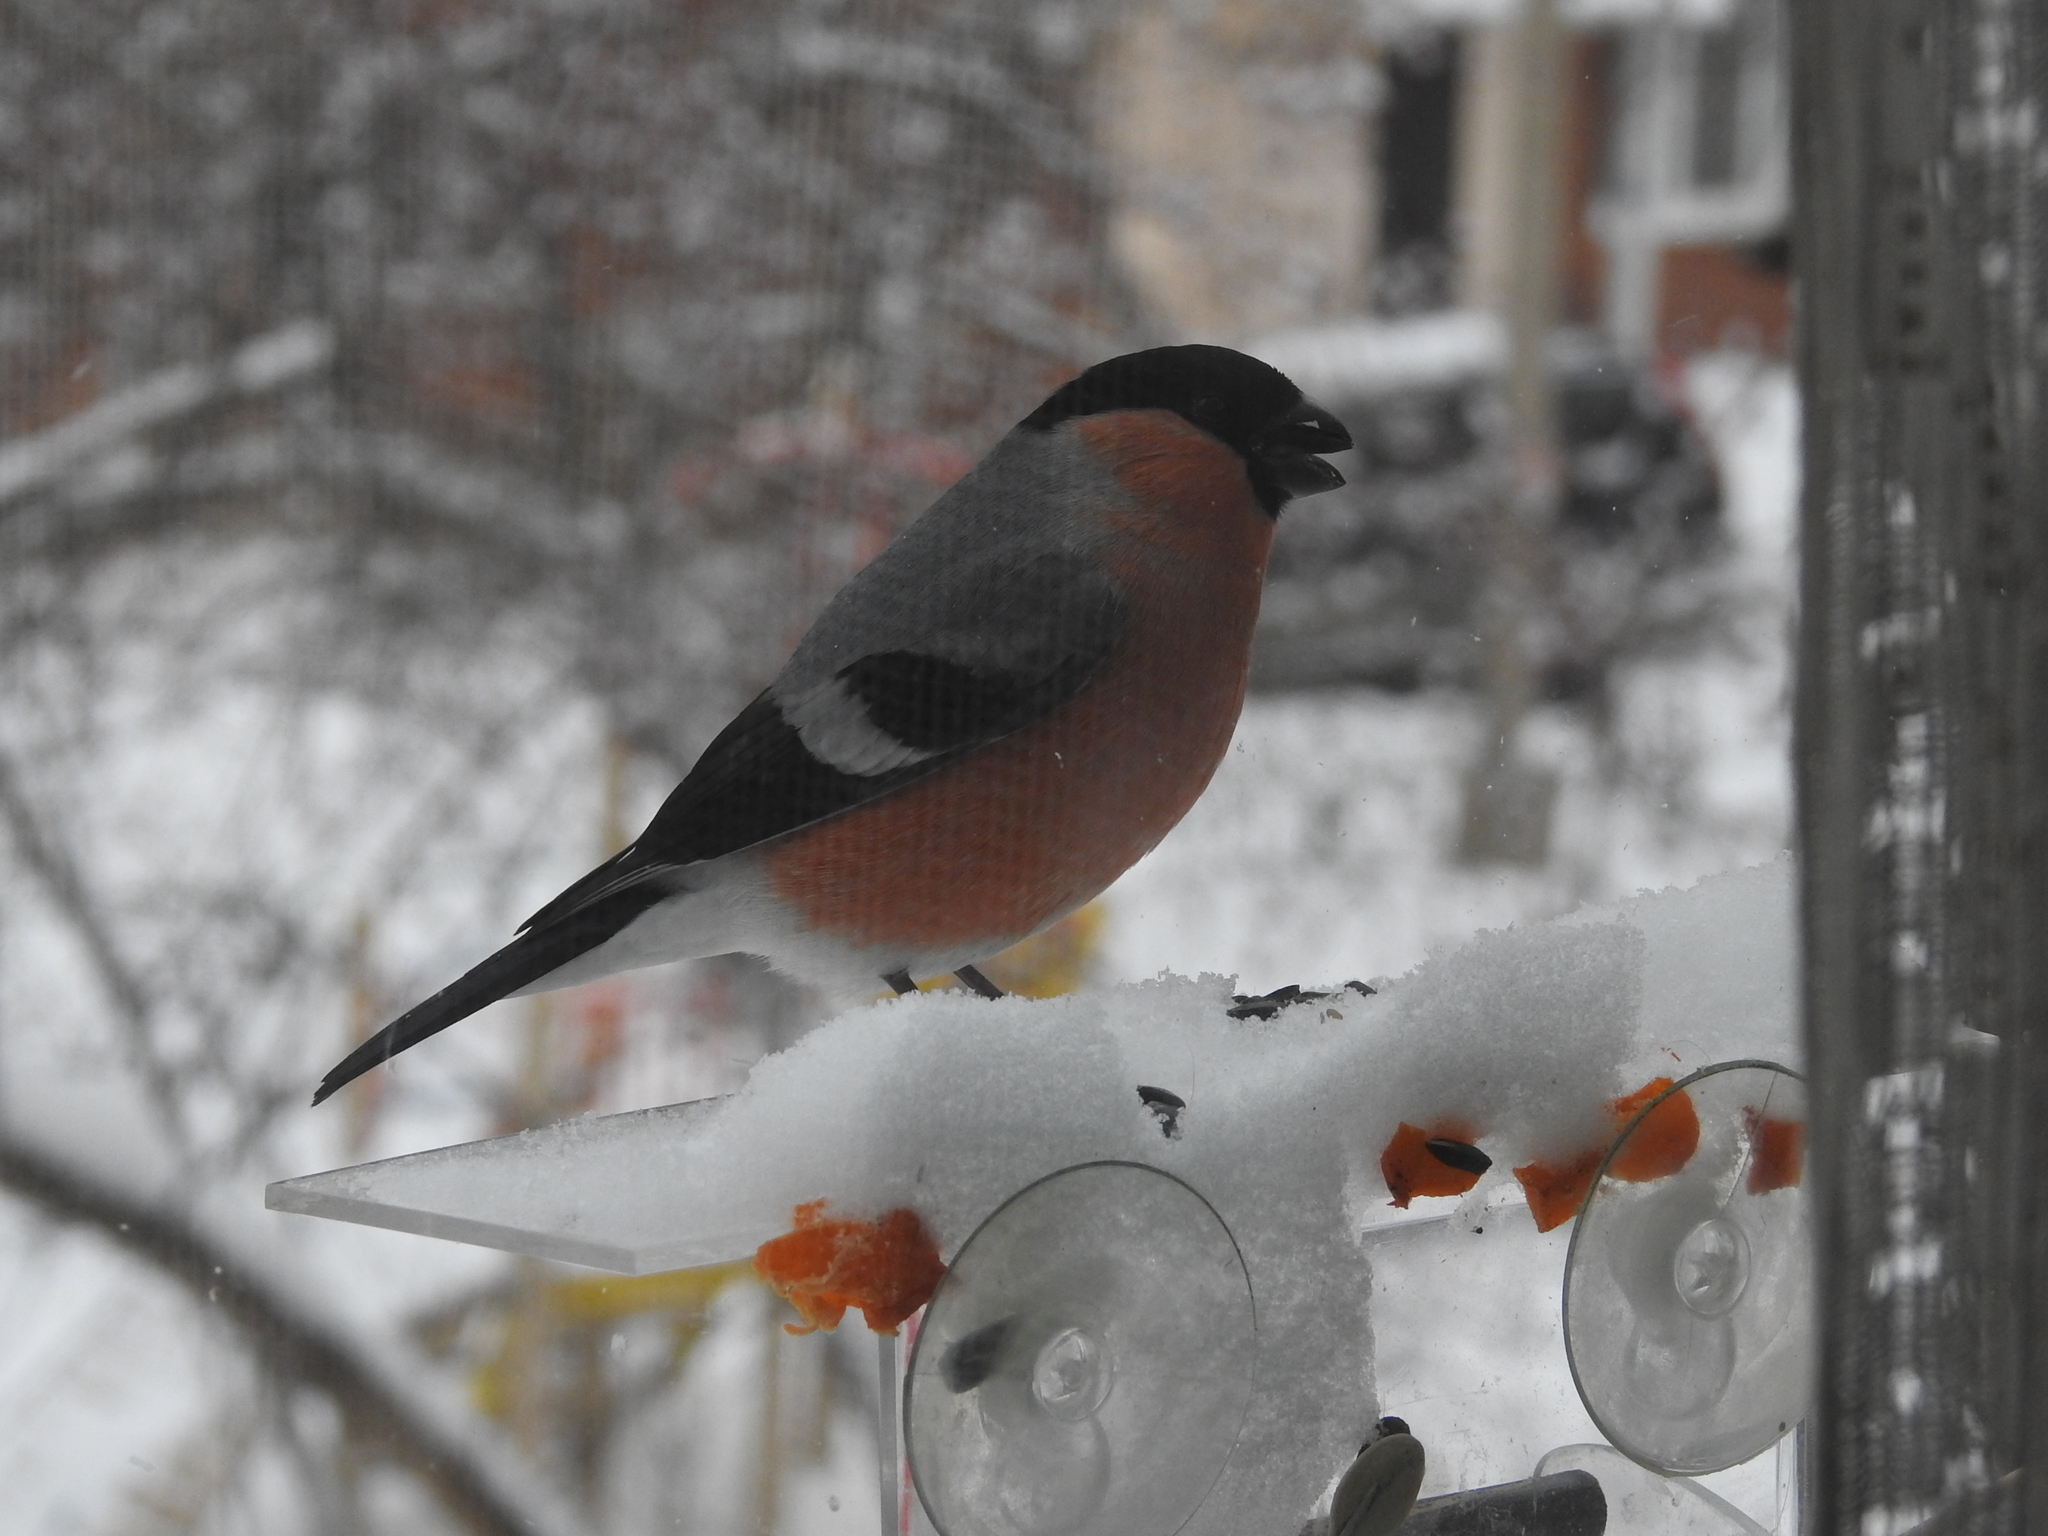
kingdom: Animalia
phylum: Chordata
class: Aves
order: Passeriformes
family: Fringillidae
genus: Pyrrhula
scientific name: Pyrrhula pyrrhula
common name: Eurasian bullfinch
